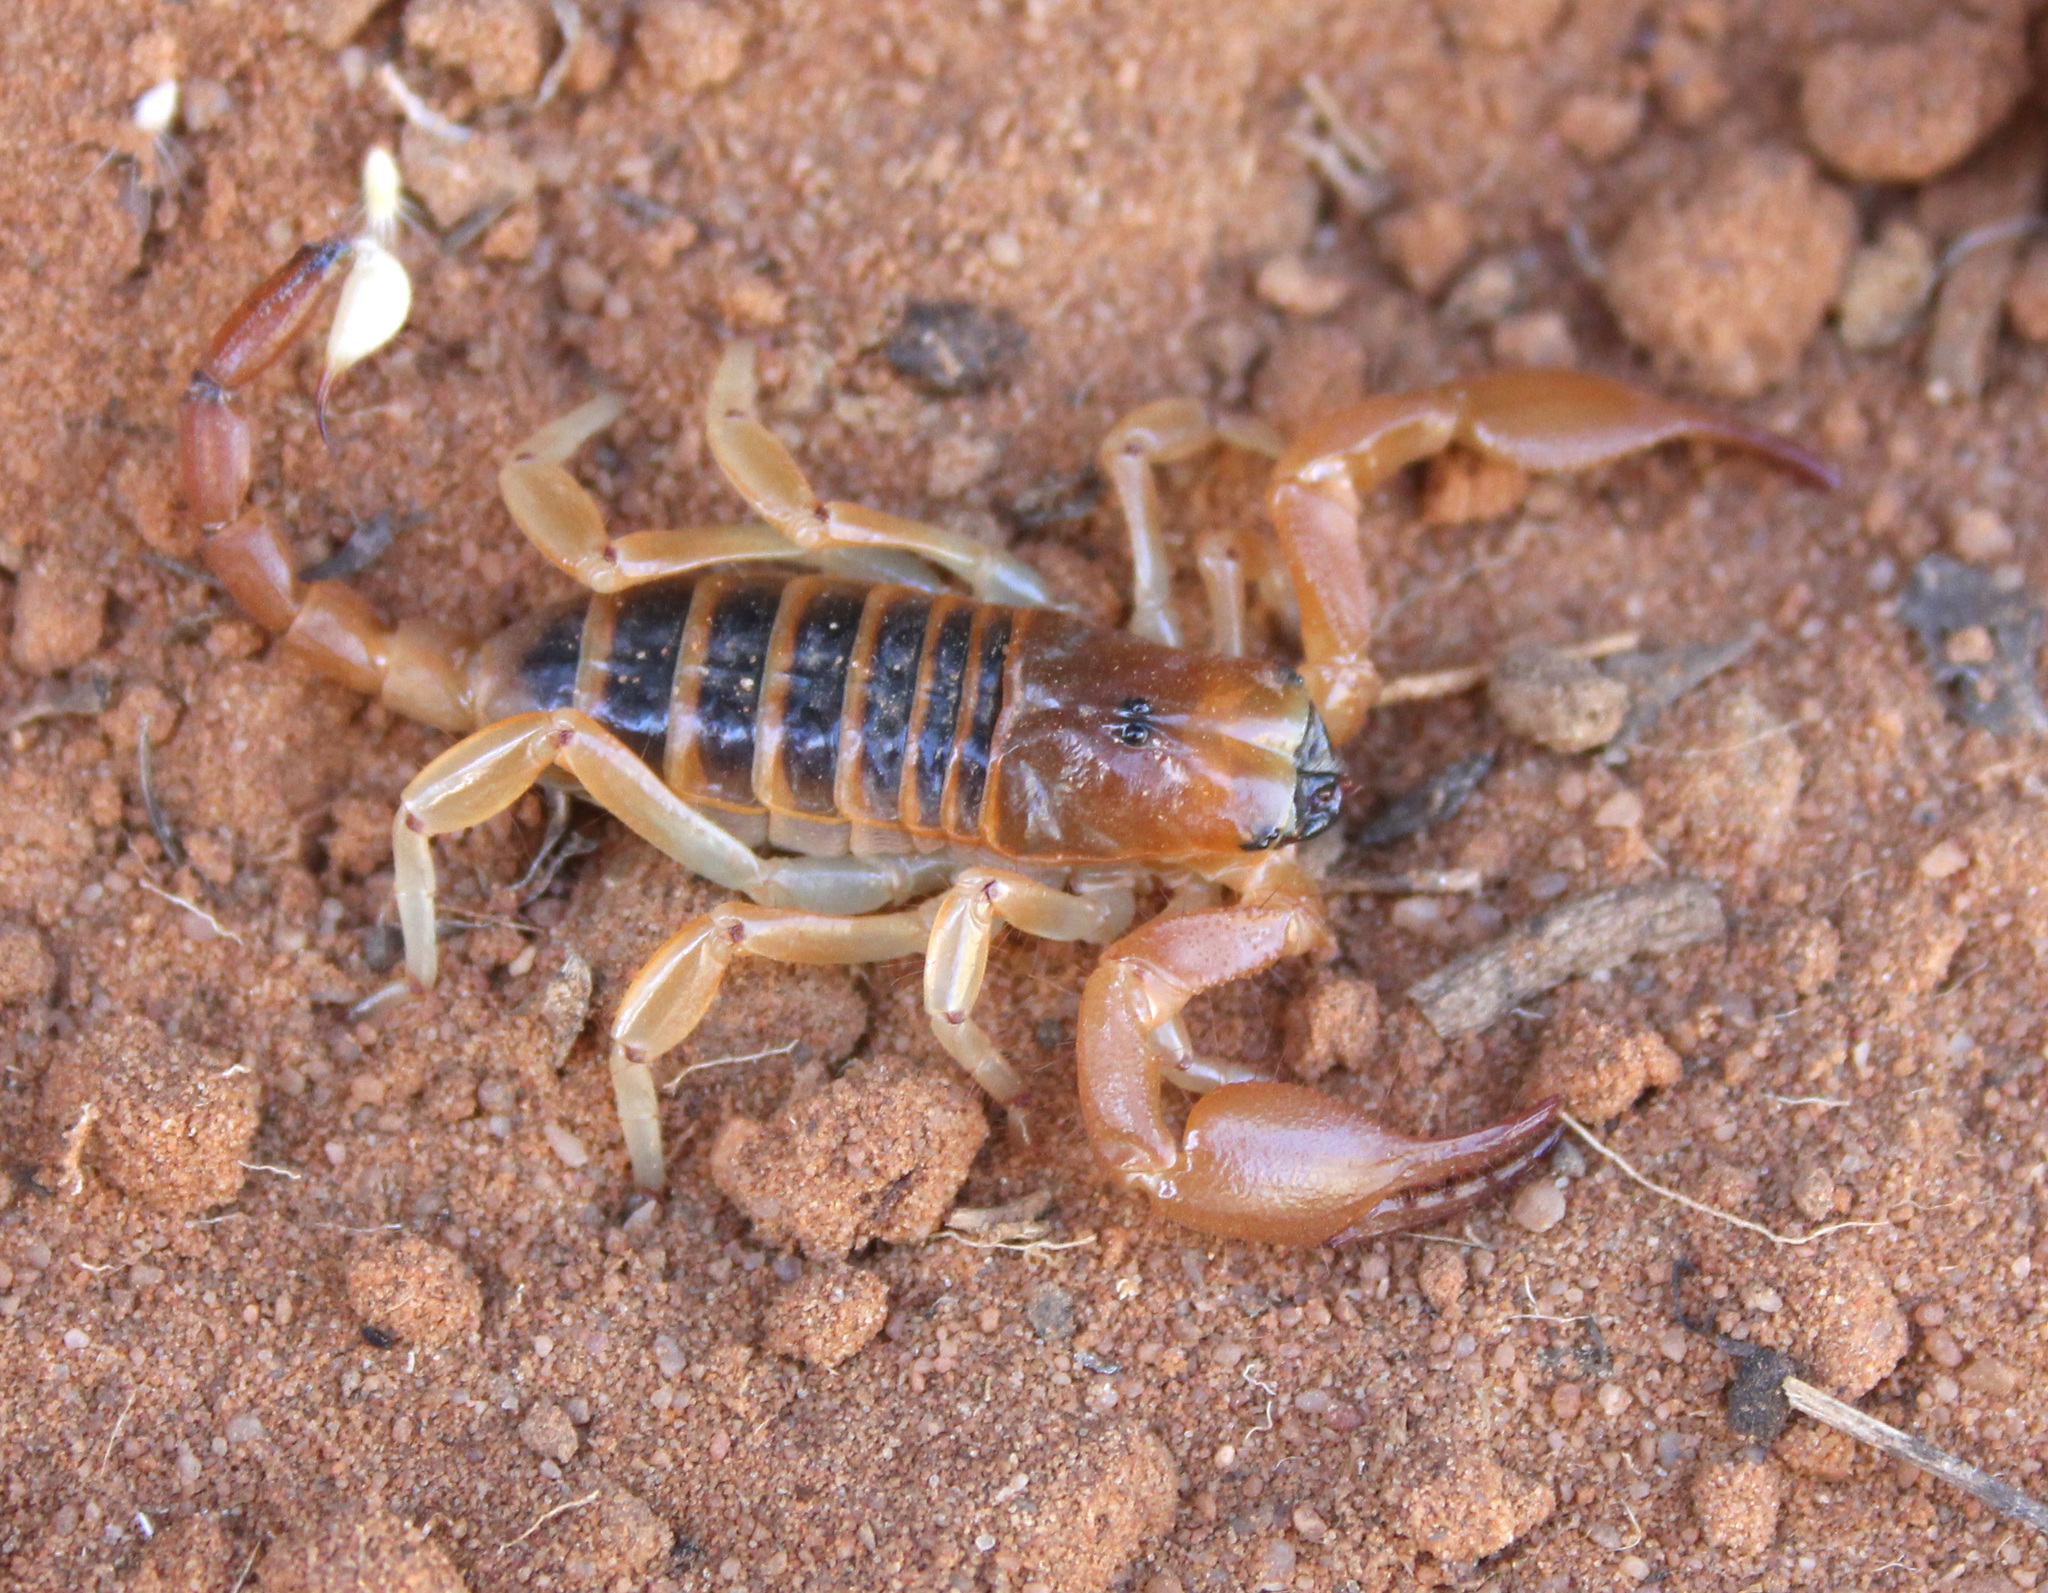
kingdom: Animalia
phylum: Arthropoda
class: Arachnida
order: Scorpiones
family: Scorpionidae
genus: Opistophthalmus
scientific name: Opistophthalmus wahlbergii
